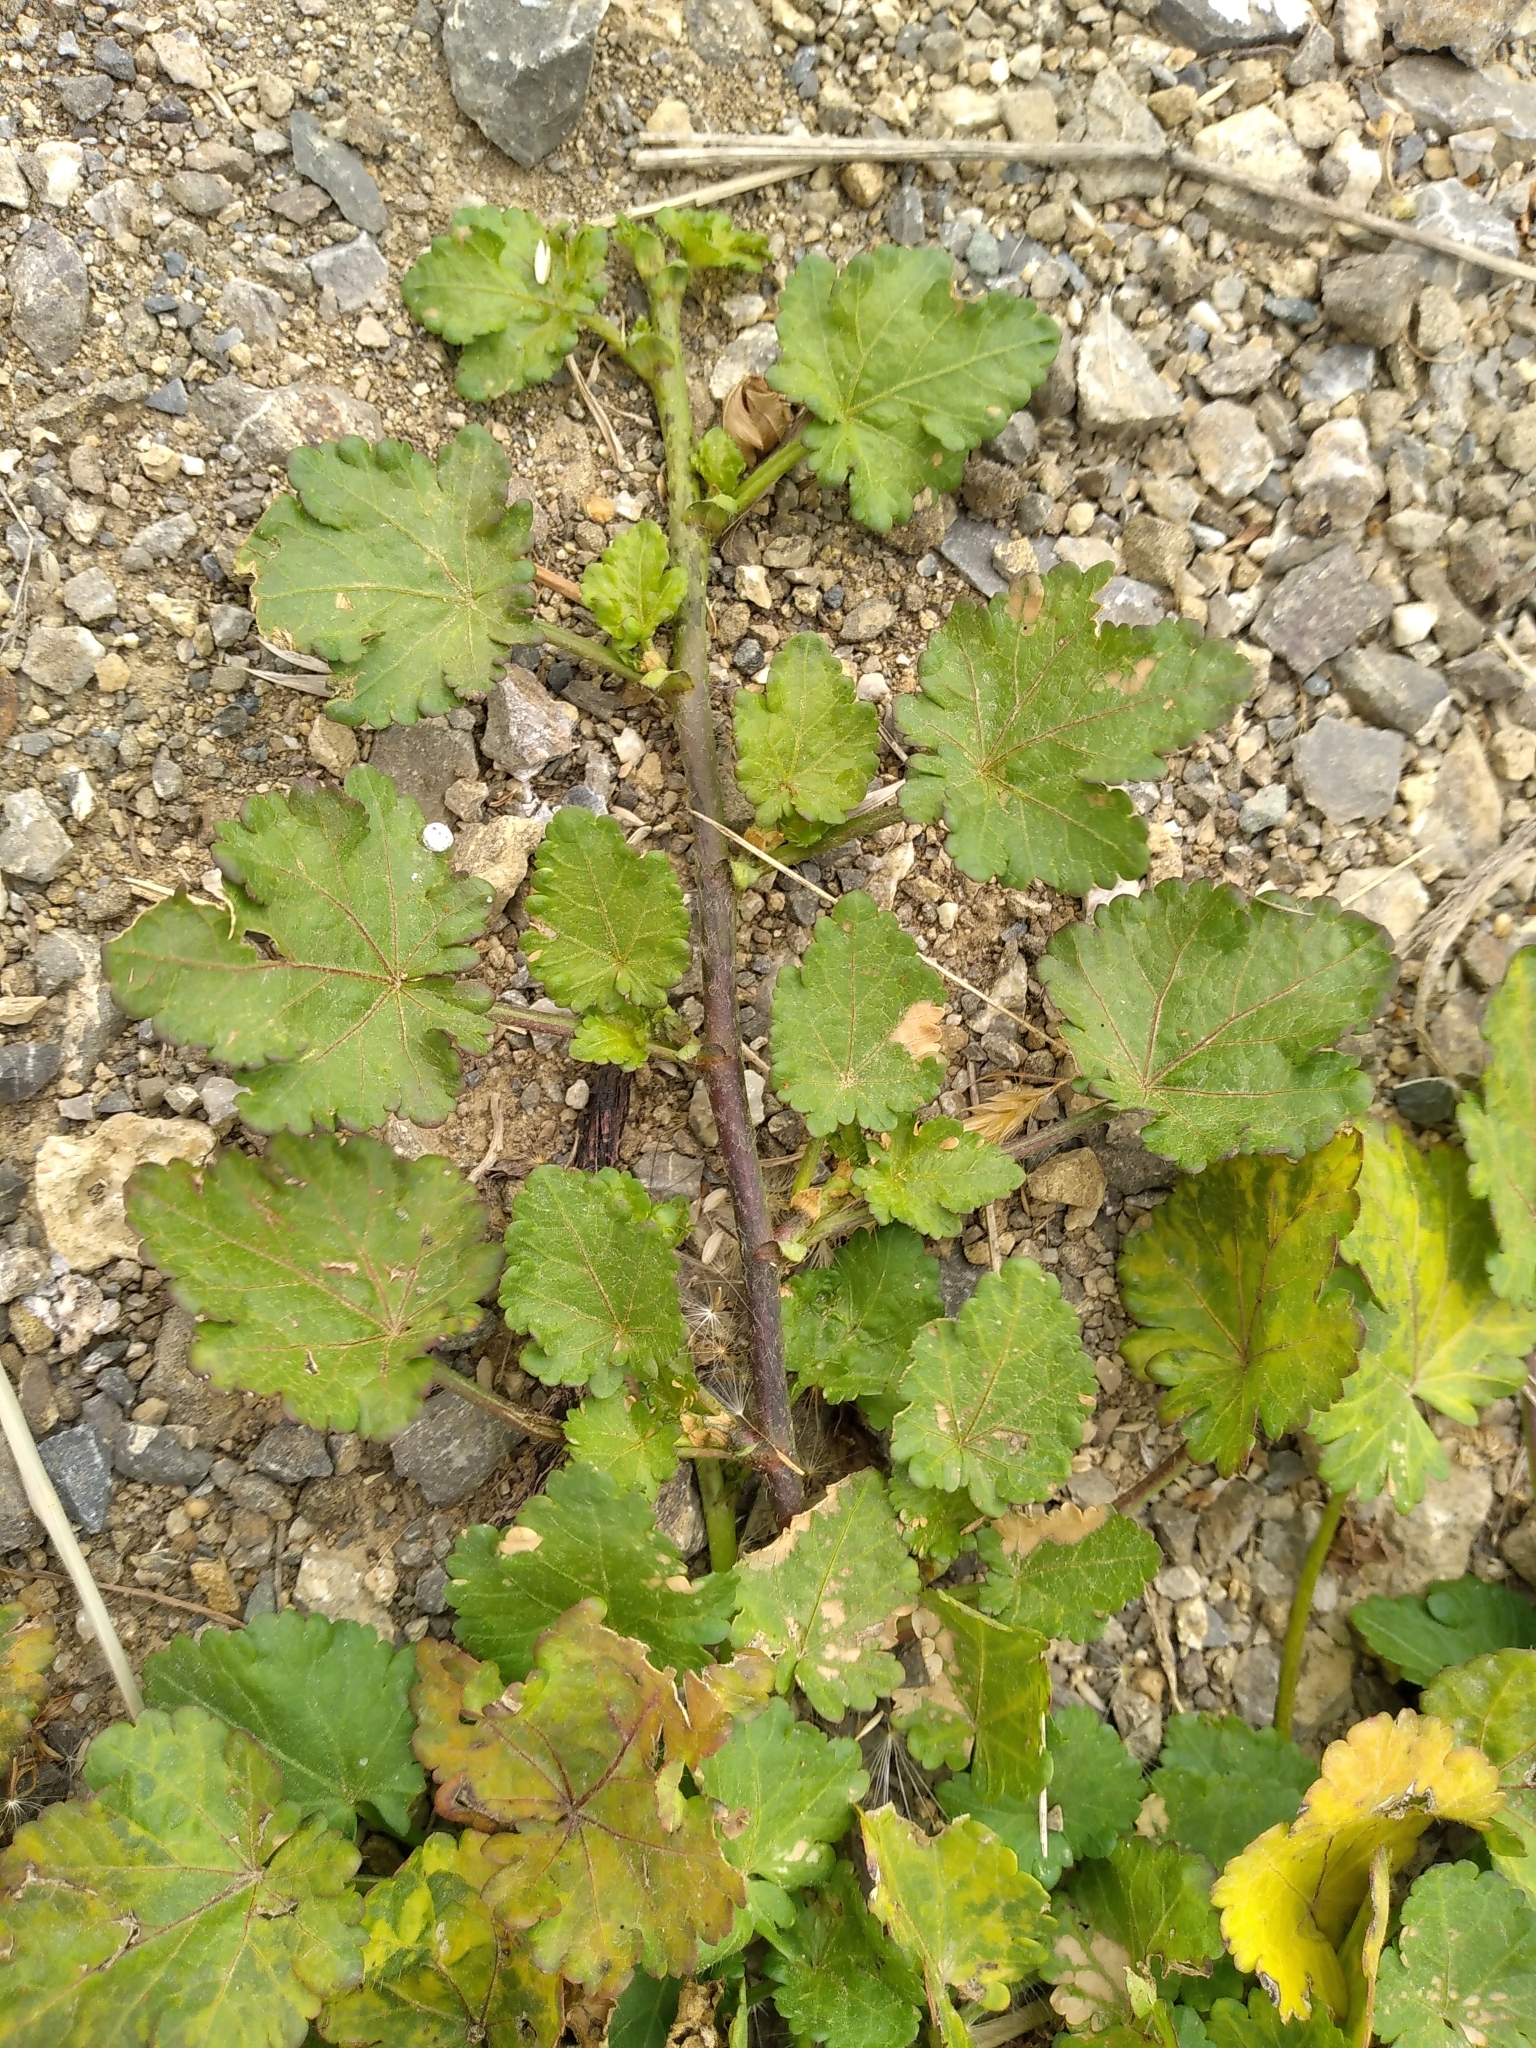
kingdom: Plantae
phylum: Tracheophyta
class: Magnoliopsida
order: Malvales
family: Malvaceae
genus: Modiola
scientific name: Modiola caroliniana
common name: Carolina bristlemallow
